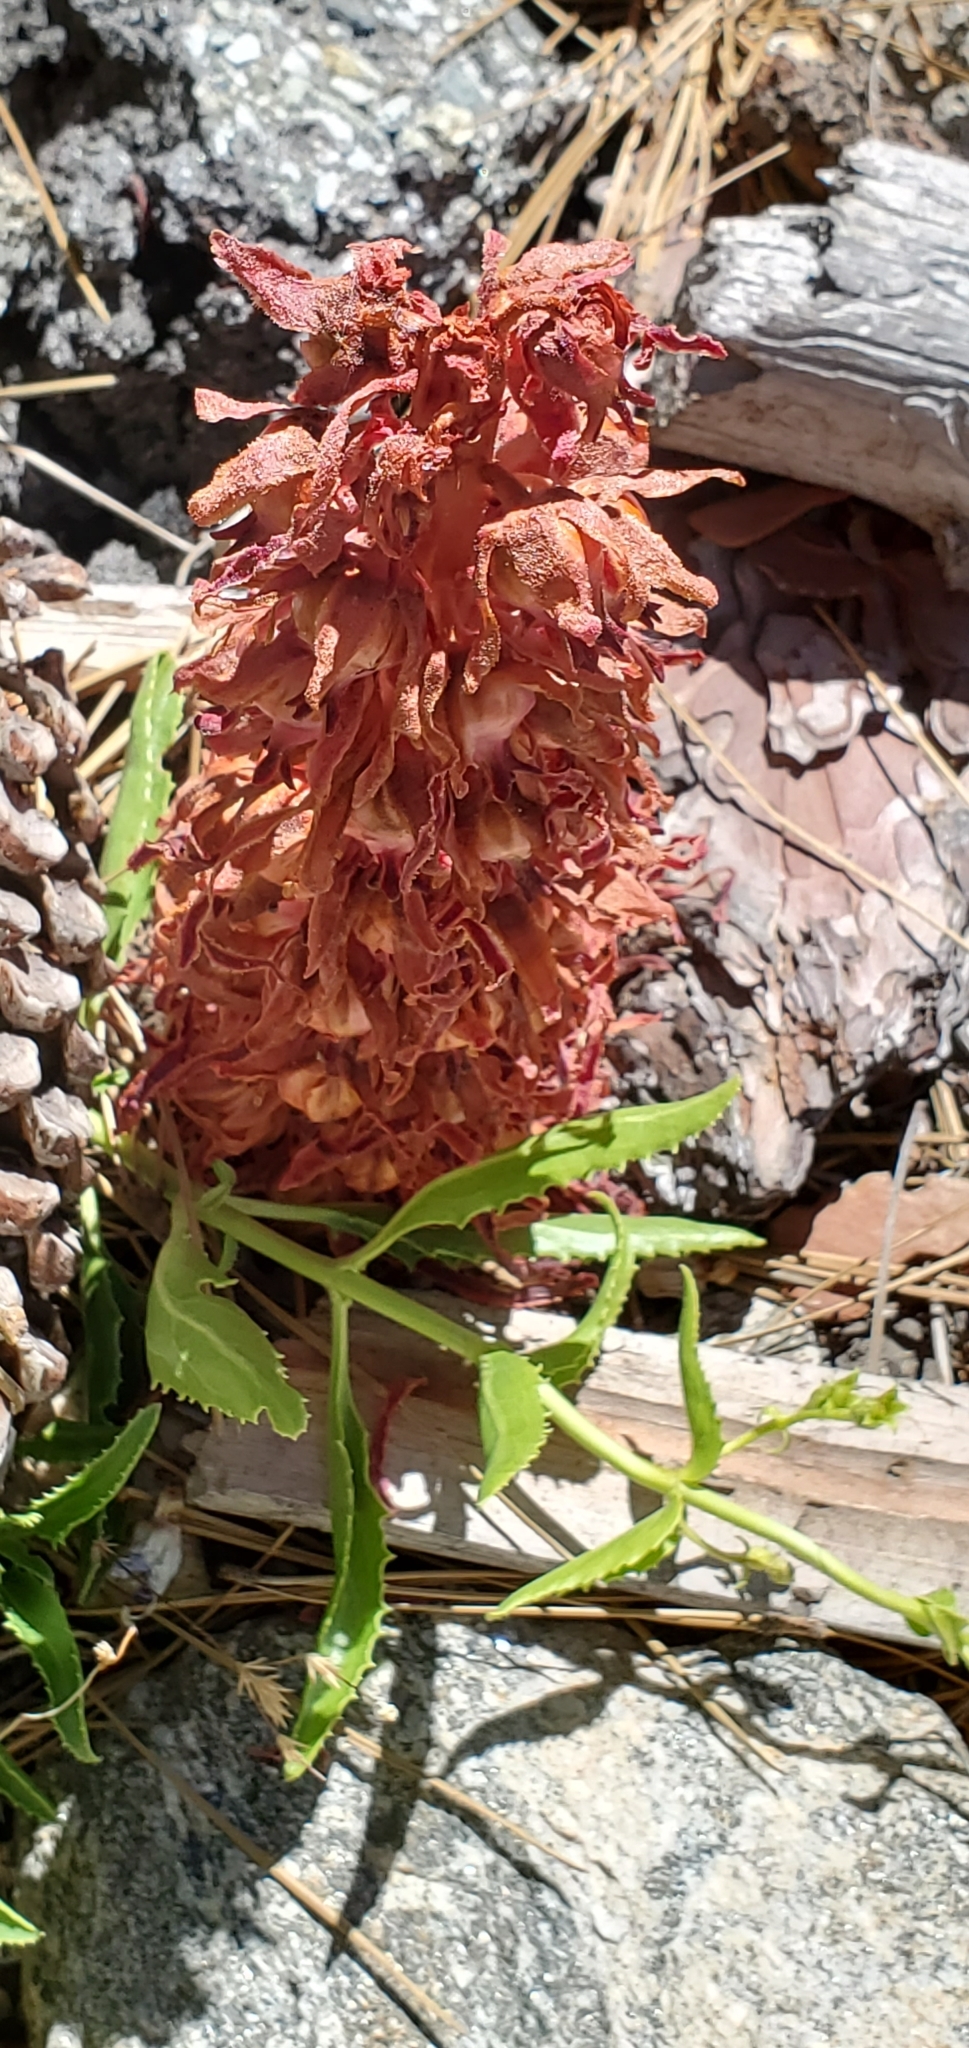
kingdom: Plantae
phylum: Tracheophyta
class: Magnoliopsida
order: Ericales
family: Ericaceae
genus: Sarcodes
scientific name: Sarcodes sanguinea
